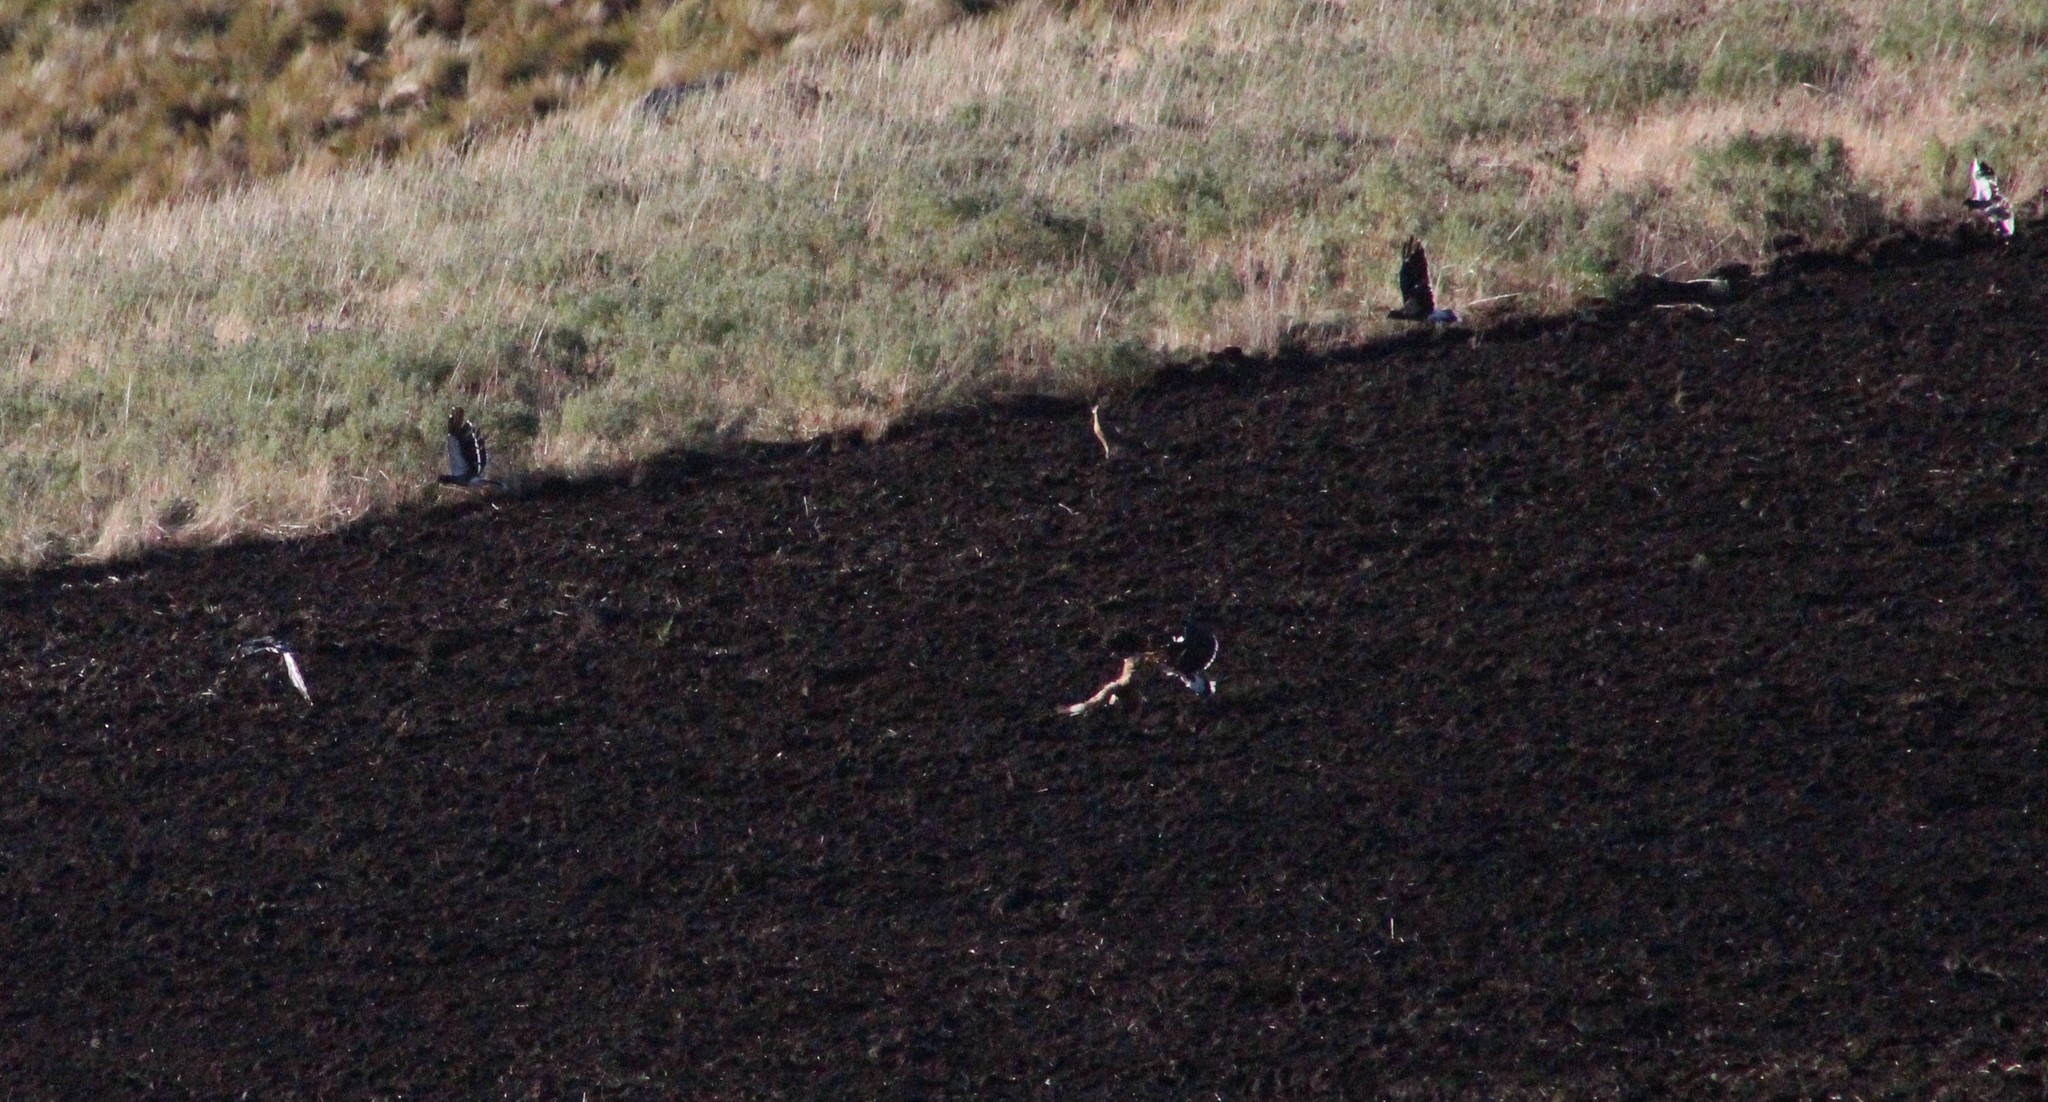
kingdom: Animalia
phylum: Chordata
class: Aves
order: Falconiformes
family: Falconidae
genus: Daptrius
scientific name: Daptrius
